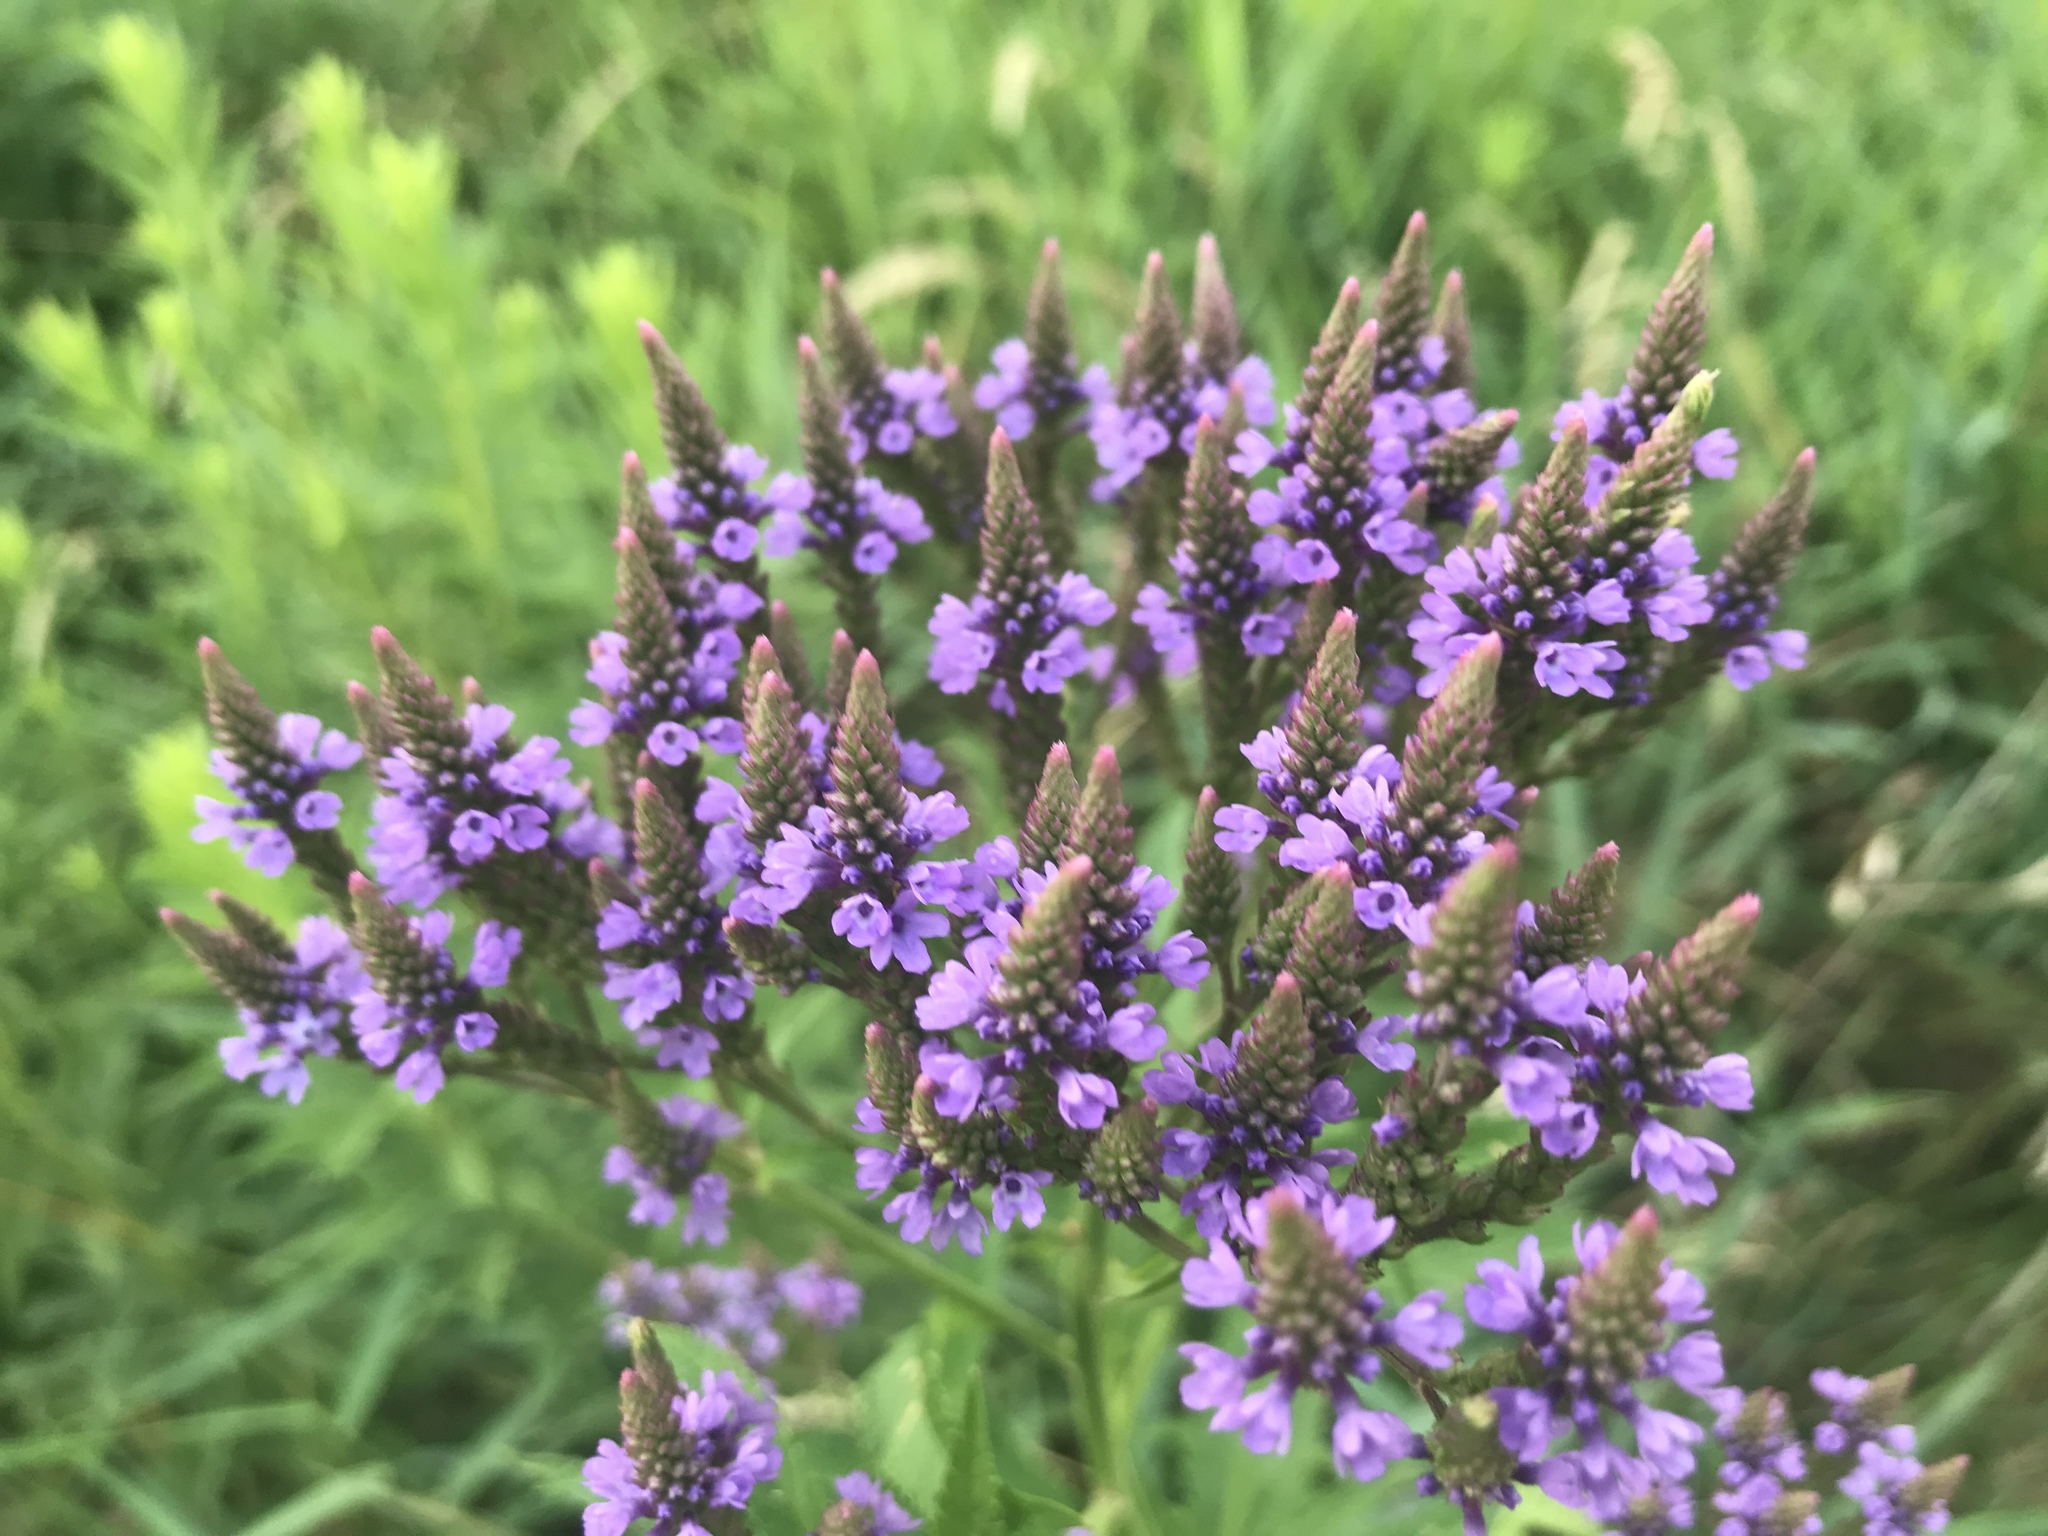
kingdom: Plantae
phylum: Tracheophyta
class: Magnoliopsida
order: Lamiales
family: Verbenaceae
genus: Verbena
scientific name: Verbena hastata
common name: American blue vervain
